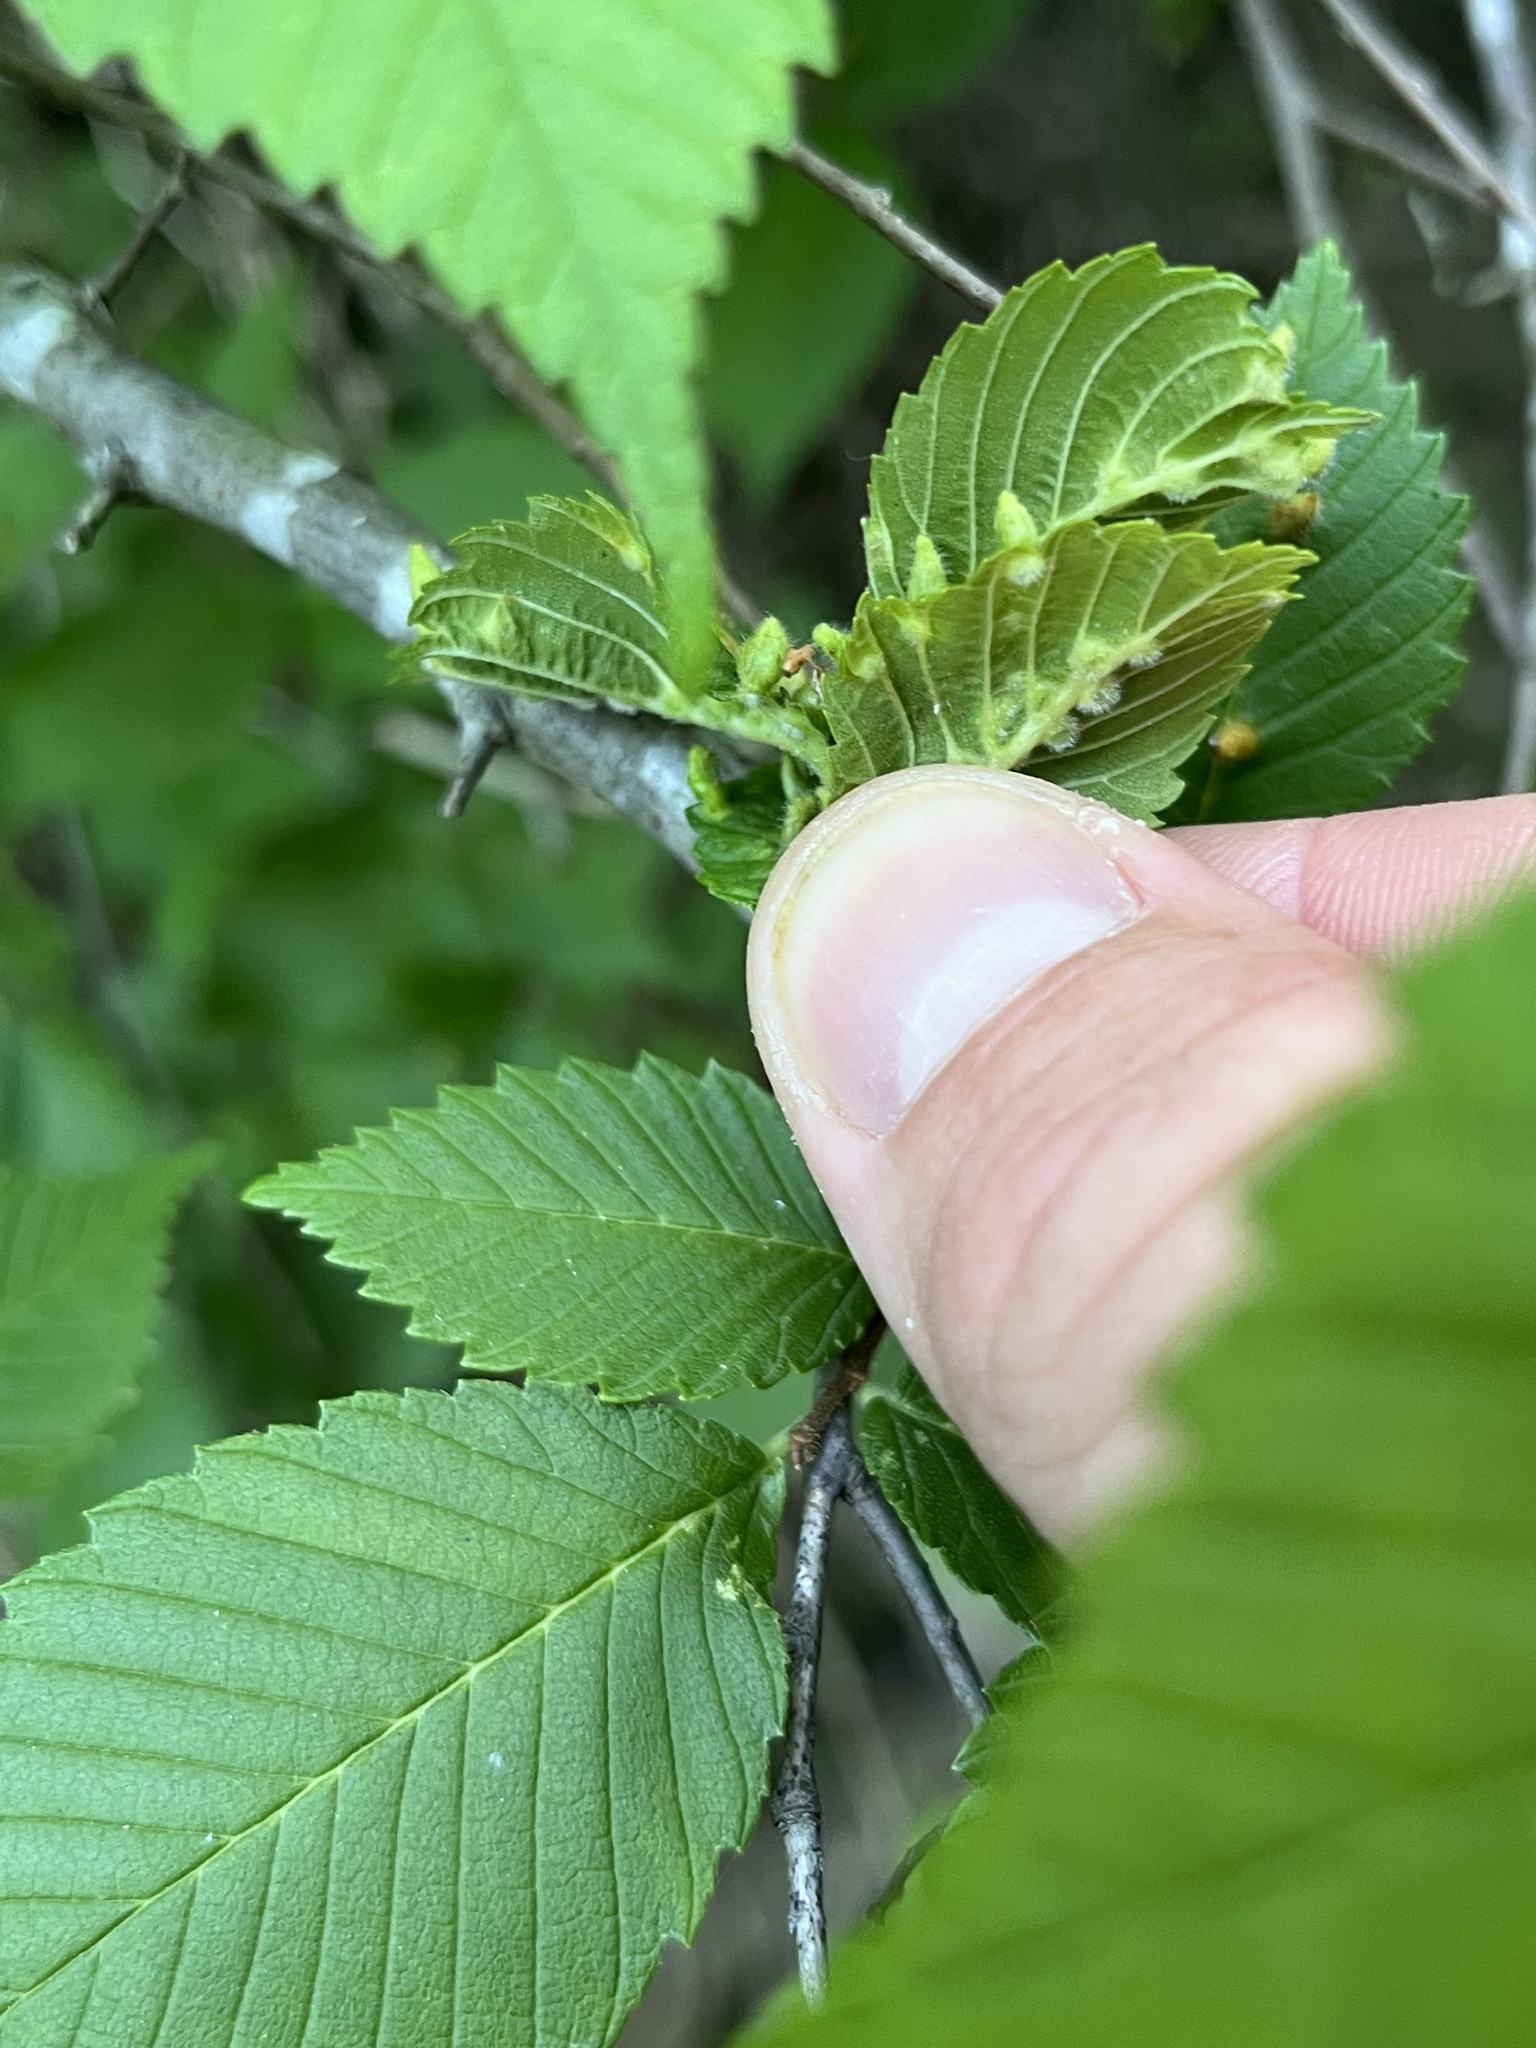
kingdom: Animalia
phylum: Arthropoda
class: Arachnida
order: Trombidiformes
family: Eriophyidae
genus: Aceria
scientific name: Aceria
